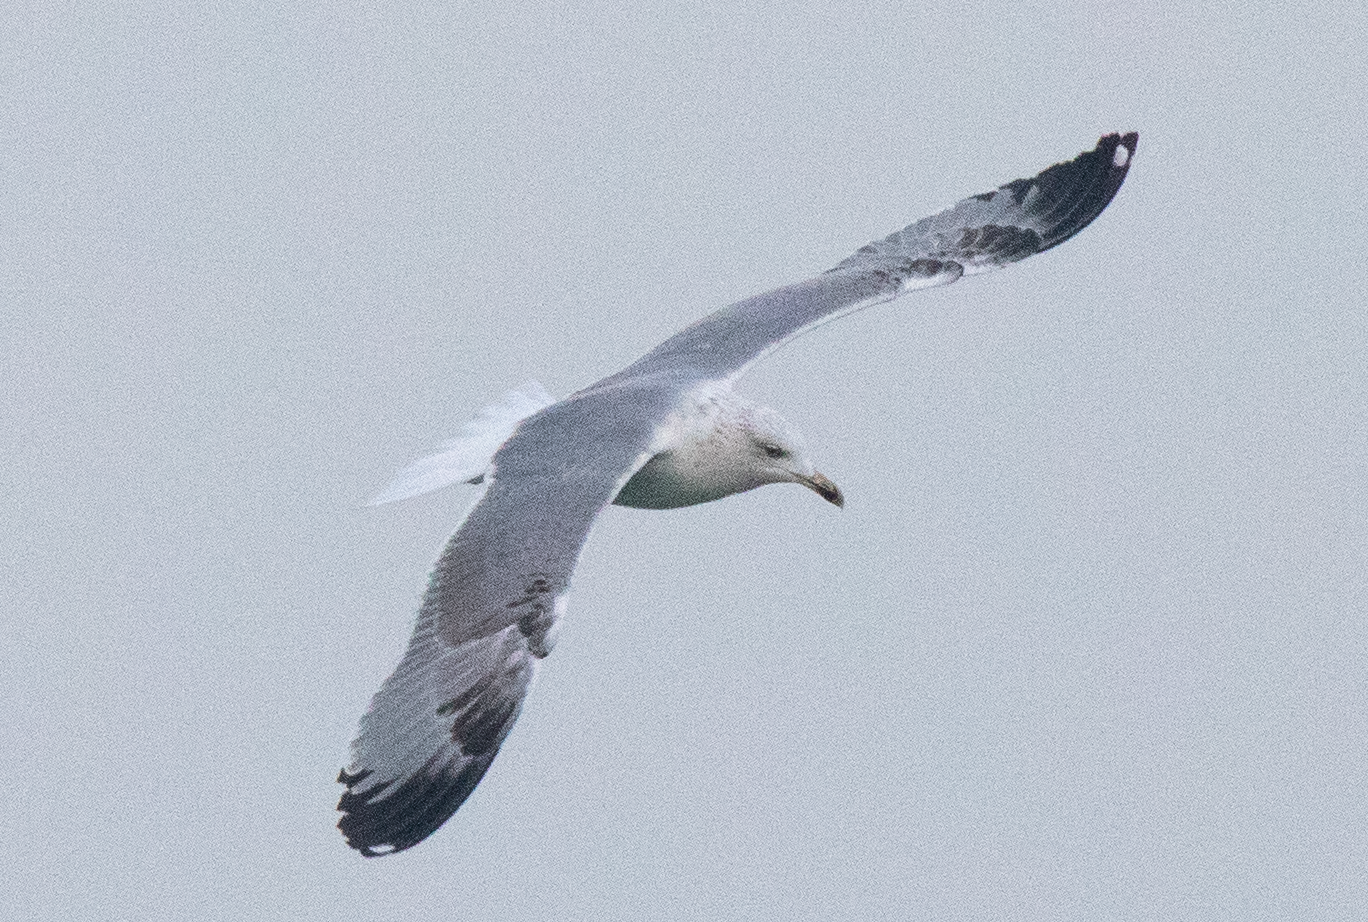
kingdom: Animalia
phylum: Chordata
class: Aves
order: Charadriiformes
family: Laridae
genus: Larus
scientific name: Larus michahellis
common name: Yellow-legged gull
